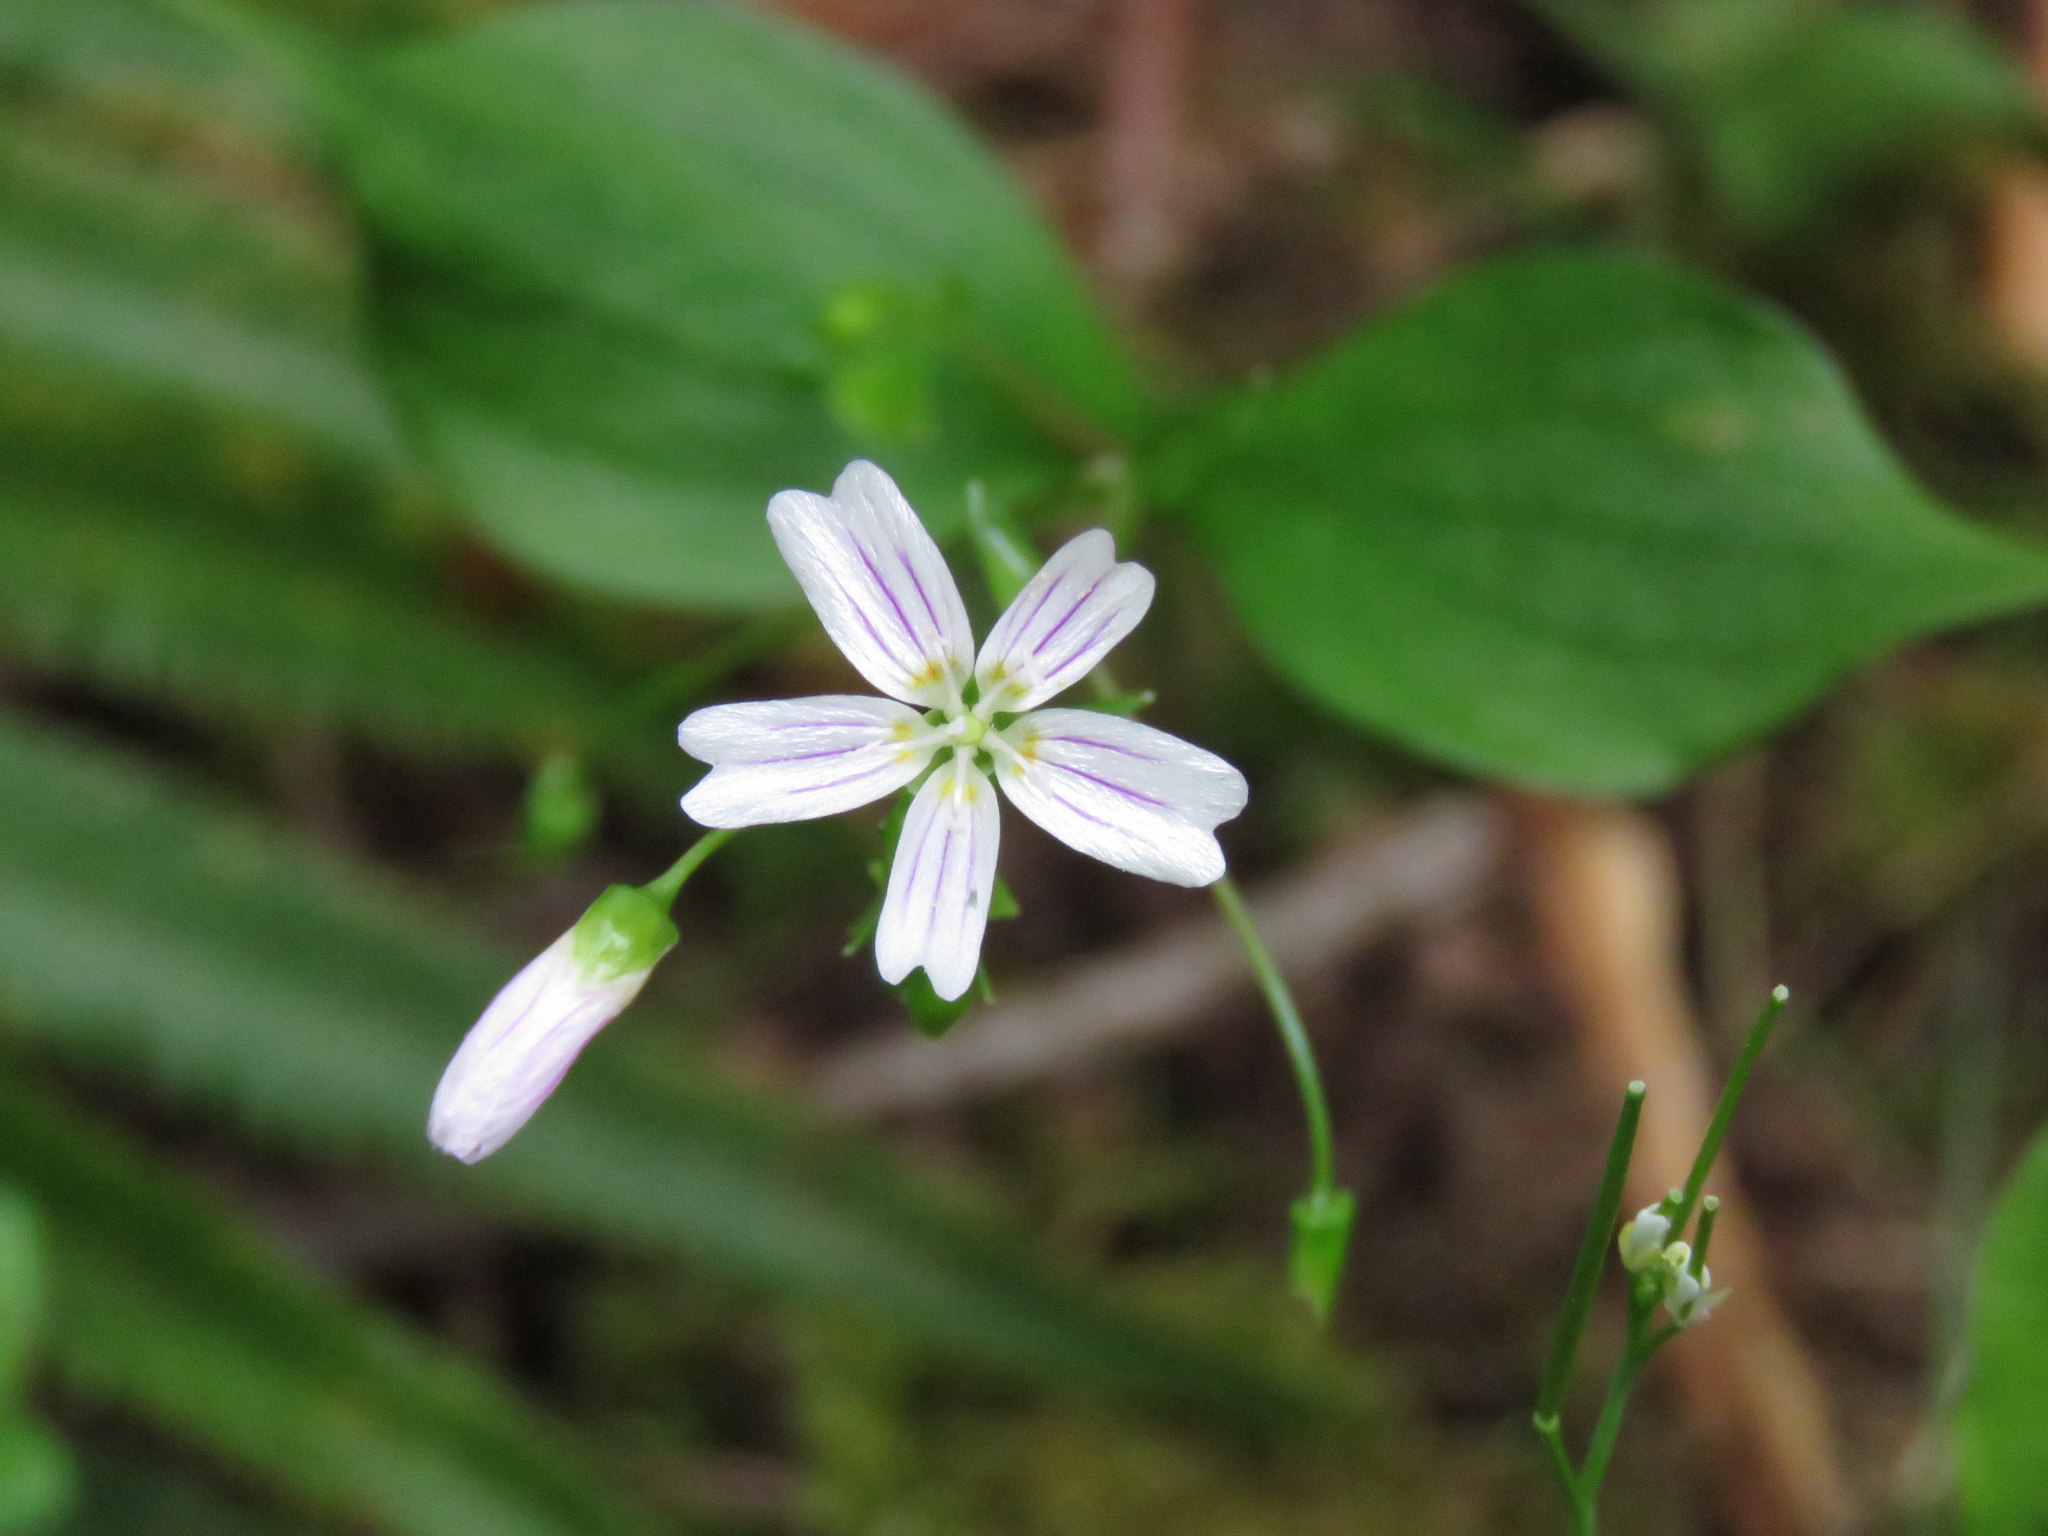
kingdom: Plantae
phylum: Tracheophyta
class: Magnoliopsida
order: Caryophyllales
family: Montiaceae
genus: Claytonia
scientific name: Claytonia sibirica
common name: Pink purslane
